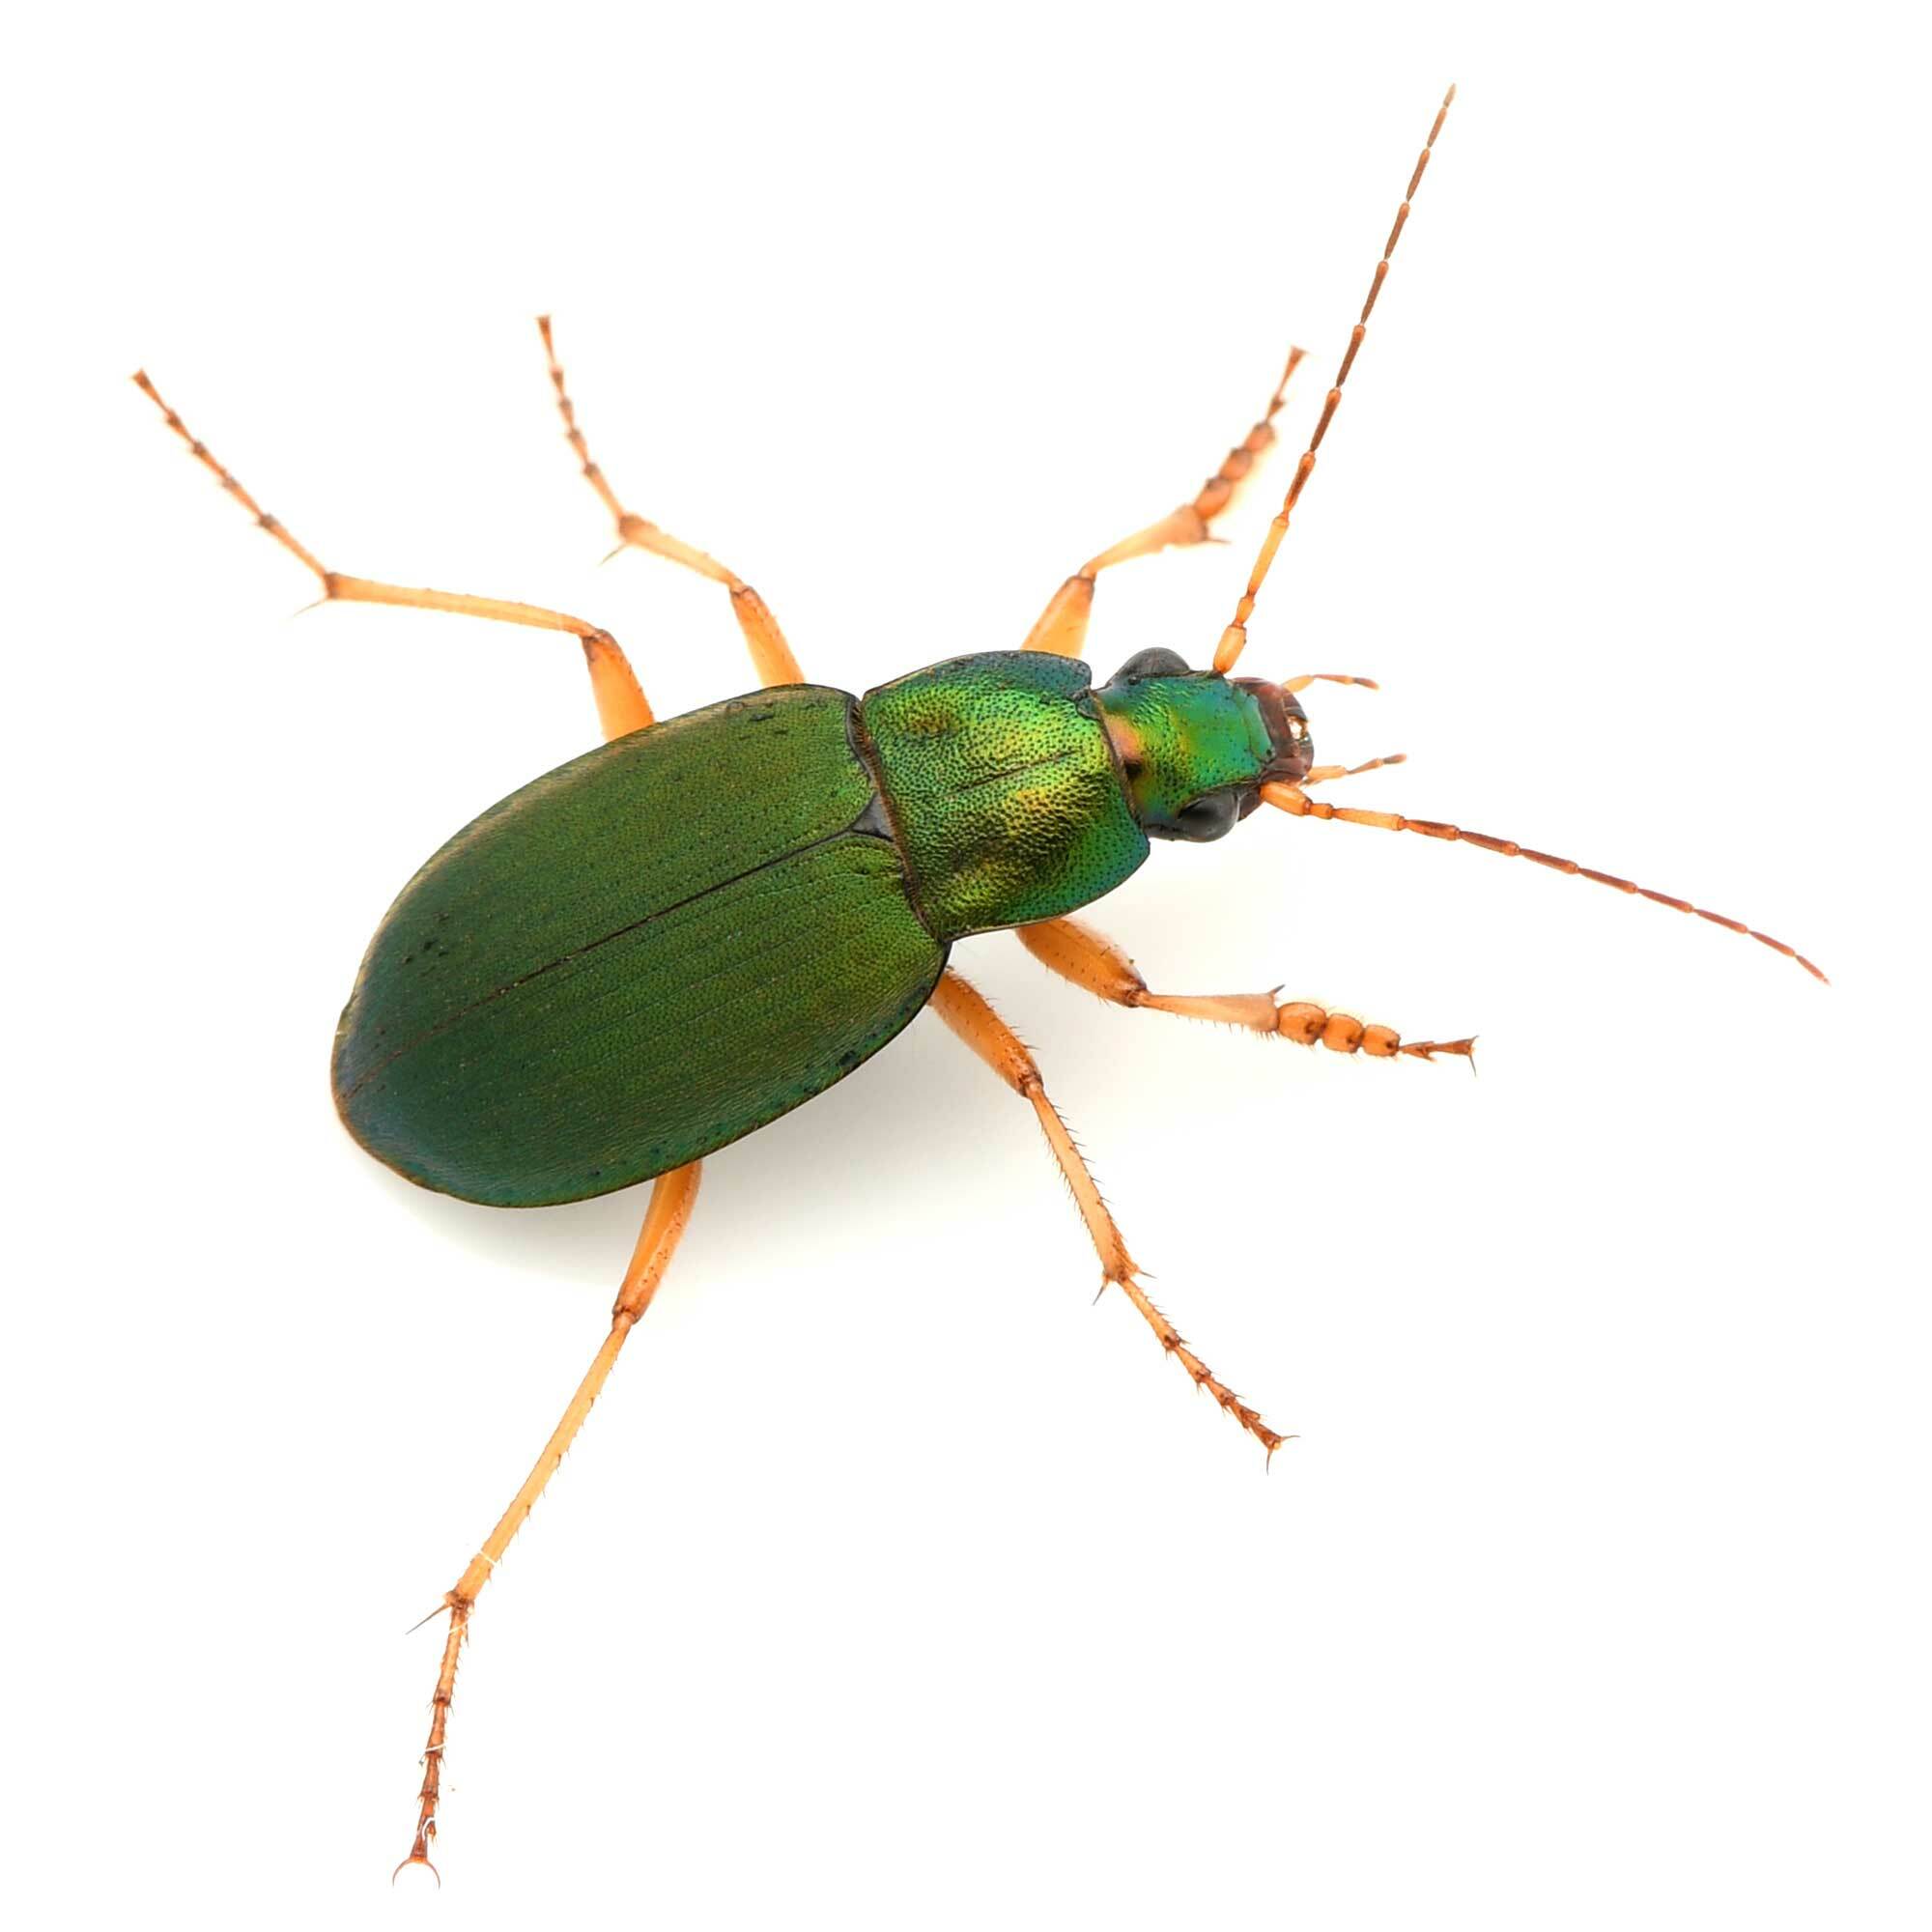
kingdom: Animalia
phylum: Arthropoda
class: Insecta
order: Coleoptera
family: Carabidae
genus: Chlaenius
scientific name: Chlaenius sericeus
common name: Green pubescent ground beetle
